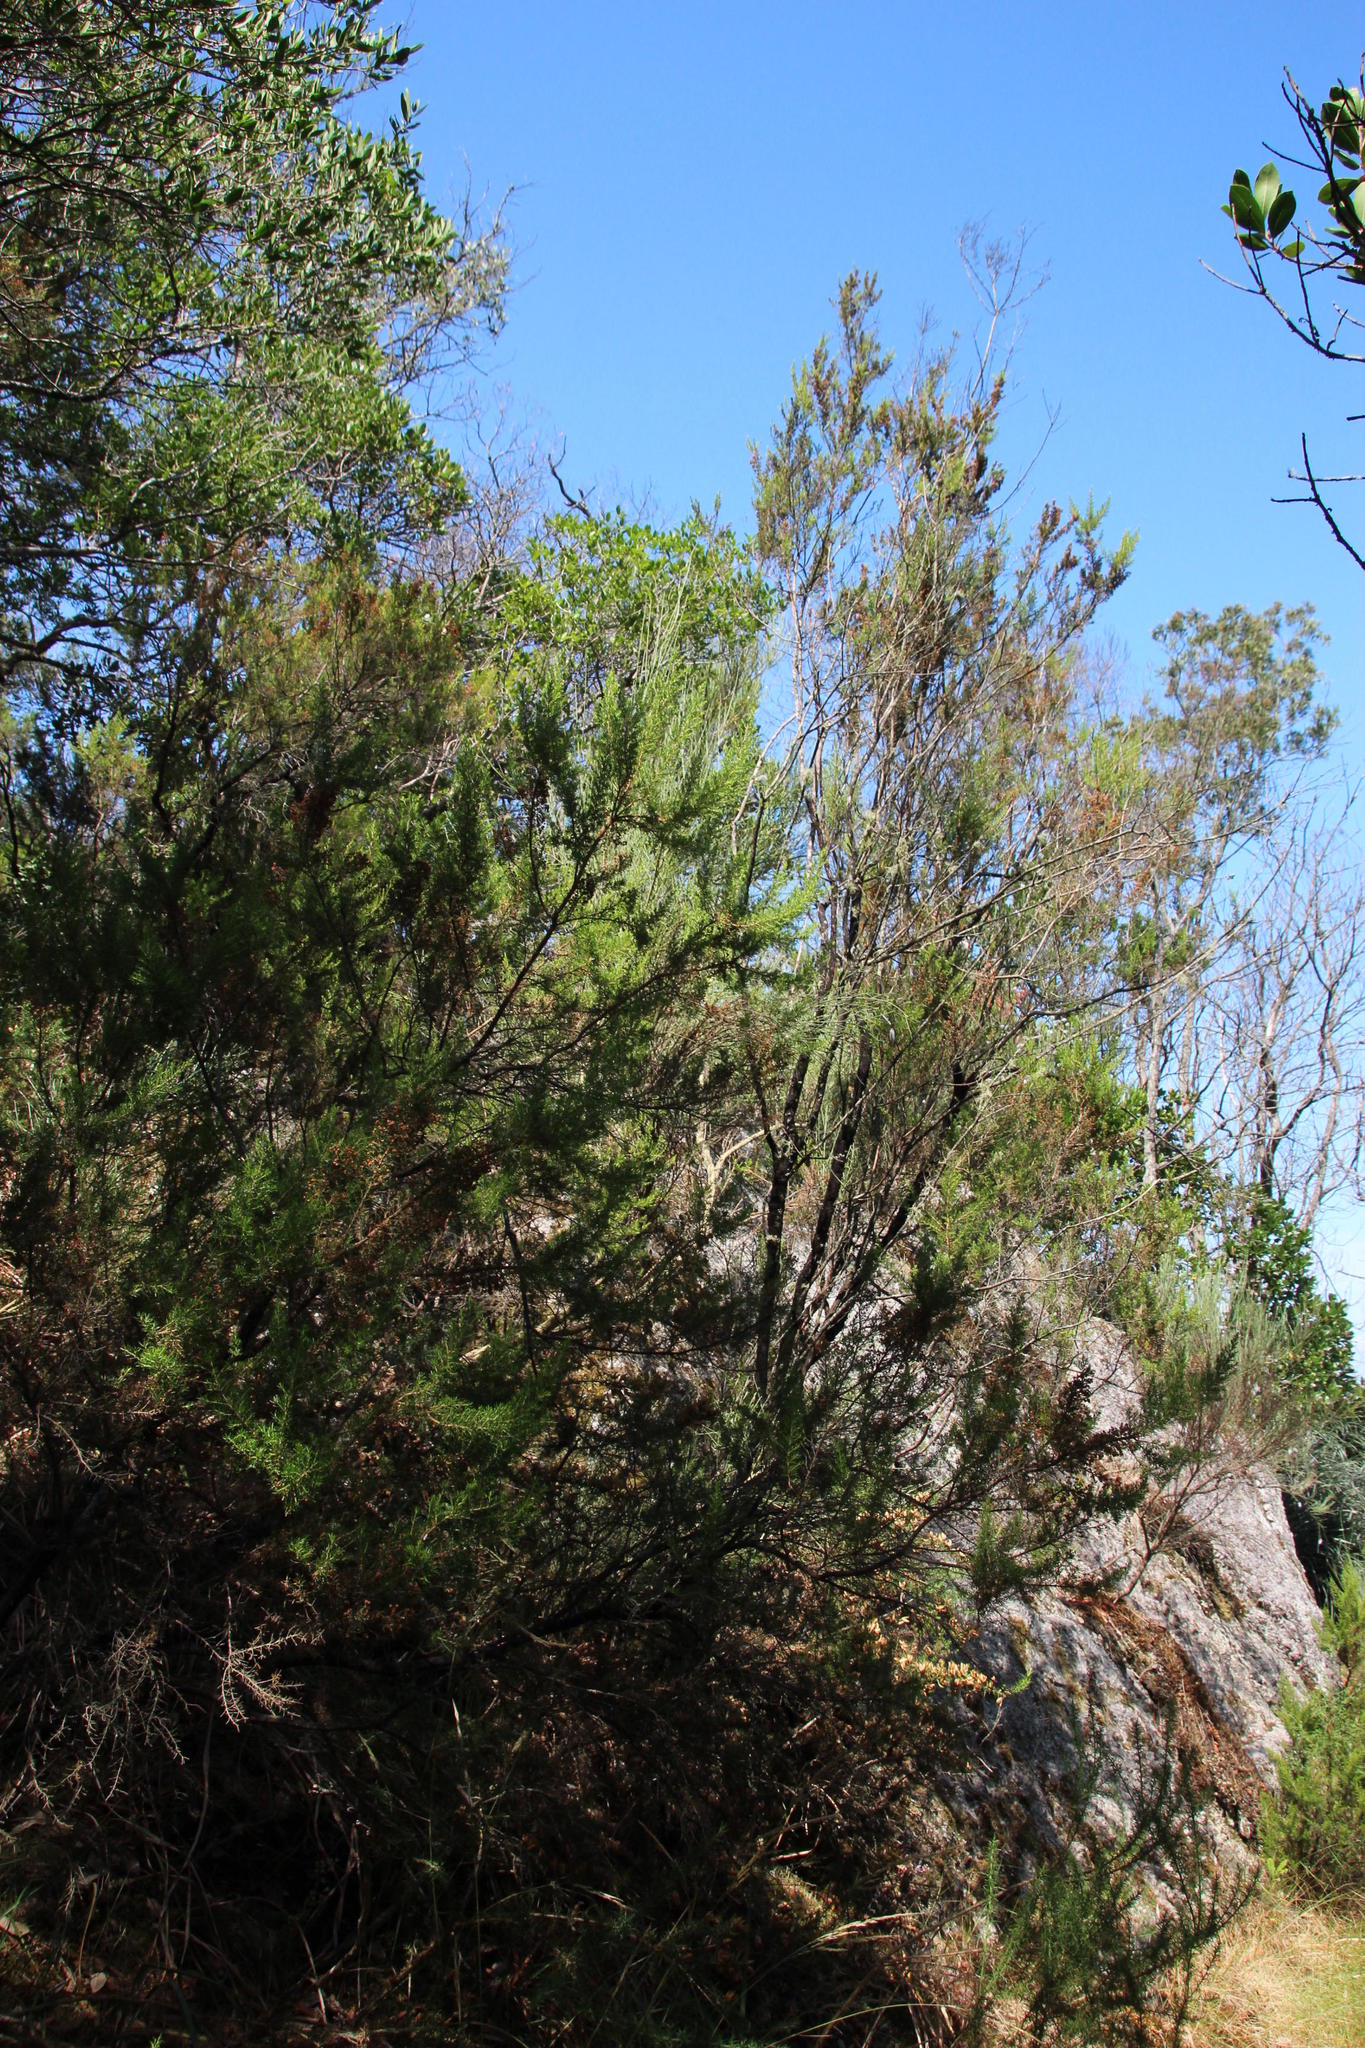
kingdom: Plantae
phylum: Tracheophyta
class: Magnoliopsida
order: Ericales
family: Ericaceae
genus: Erica
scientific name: Erica arborea
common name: Tree heath
